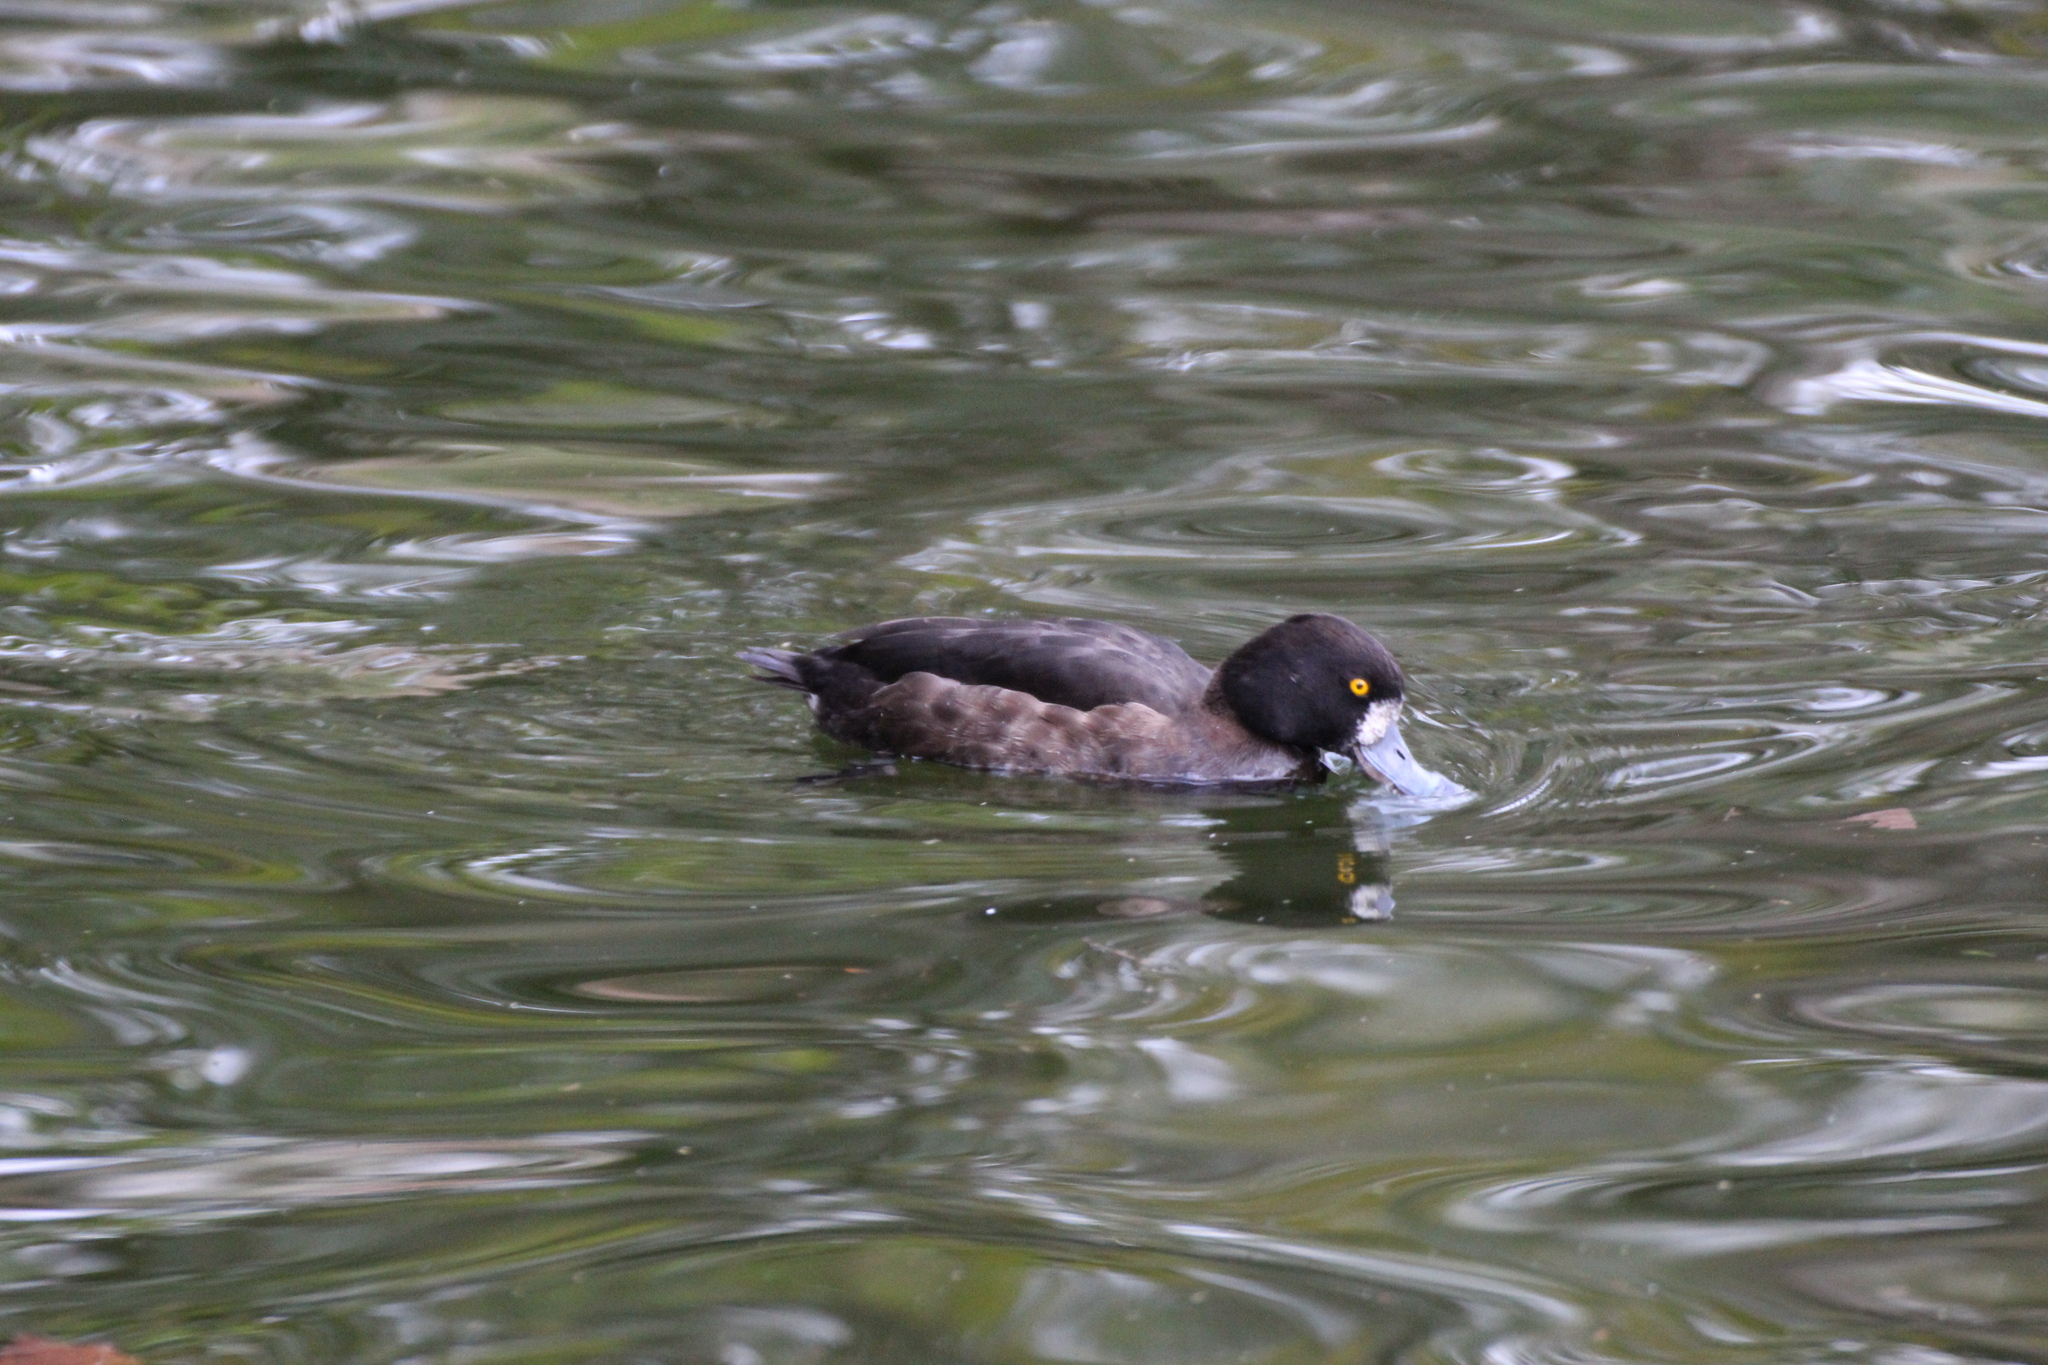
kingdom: Animalia
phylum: Chordata
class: Aves
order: Anseriformes
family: Anatidae
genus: Aythya
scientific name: Aythya fuligula
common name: Tufted duck
